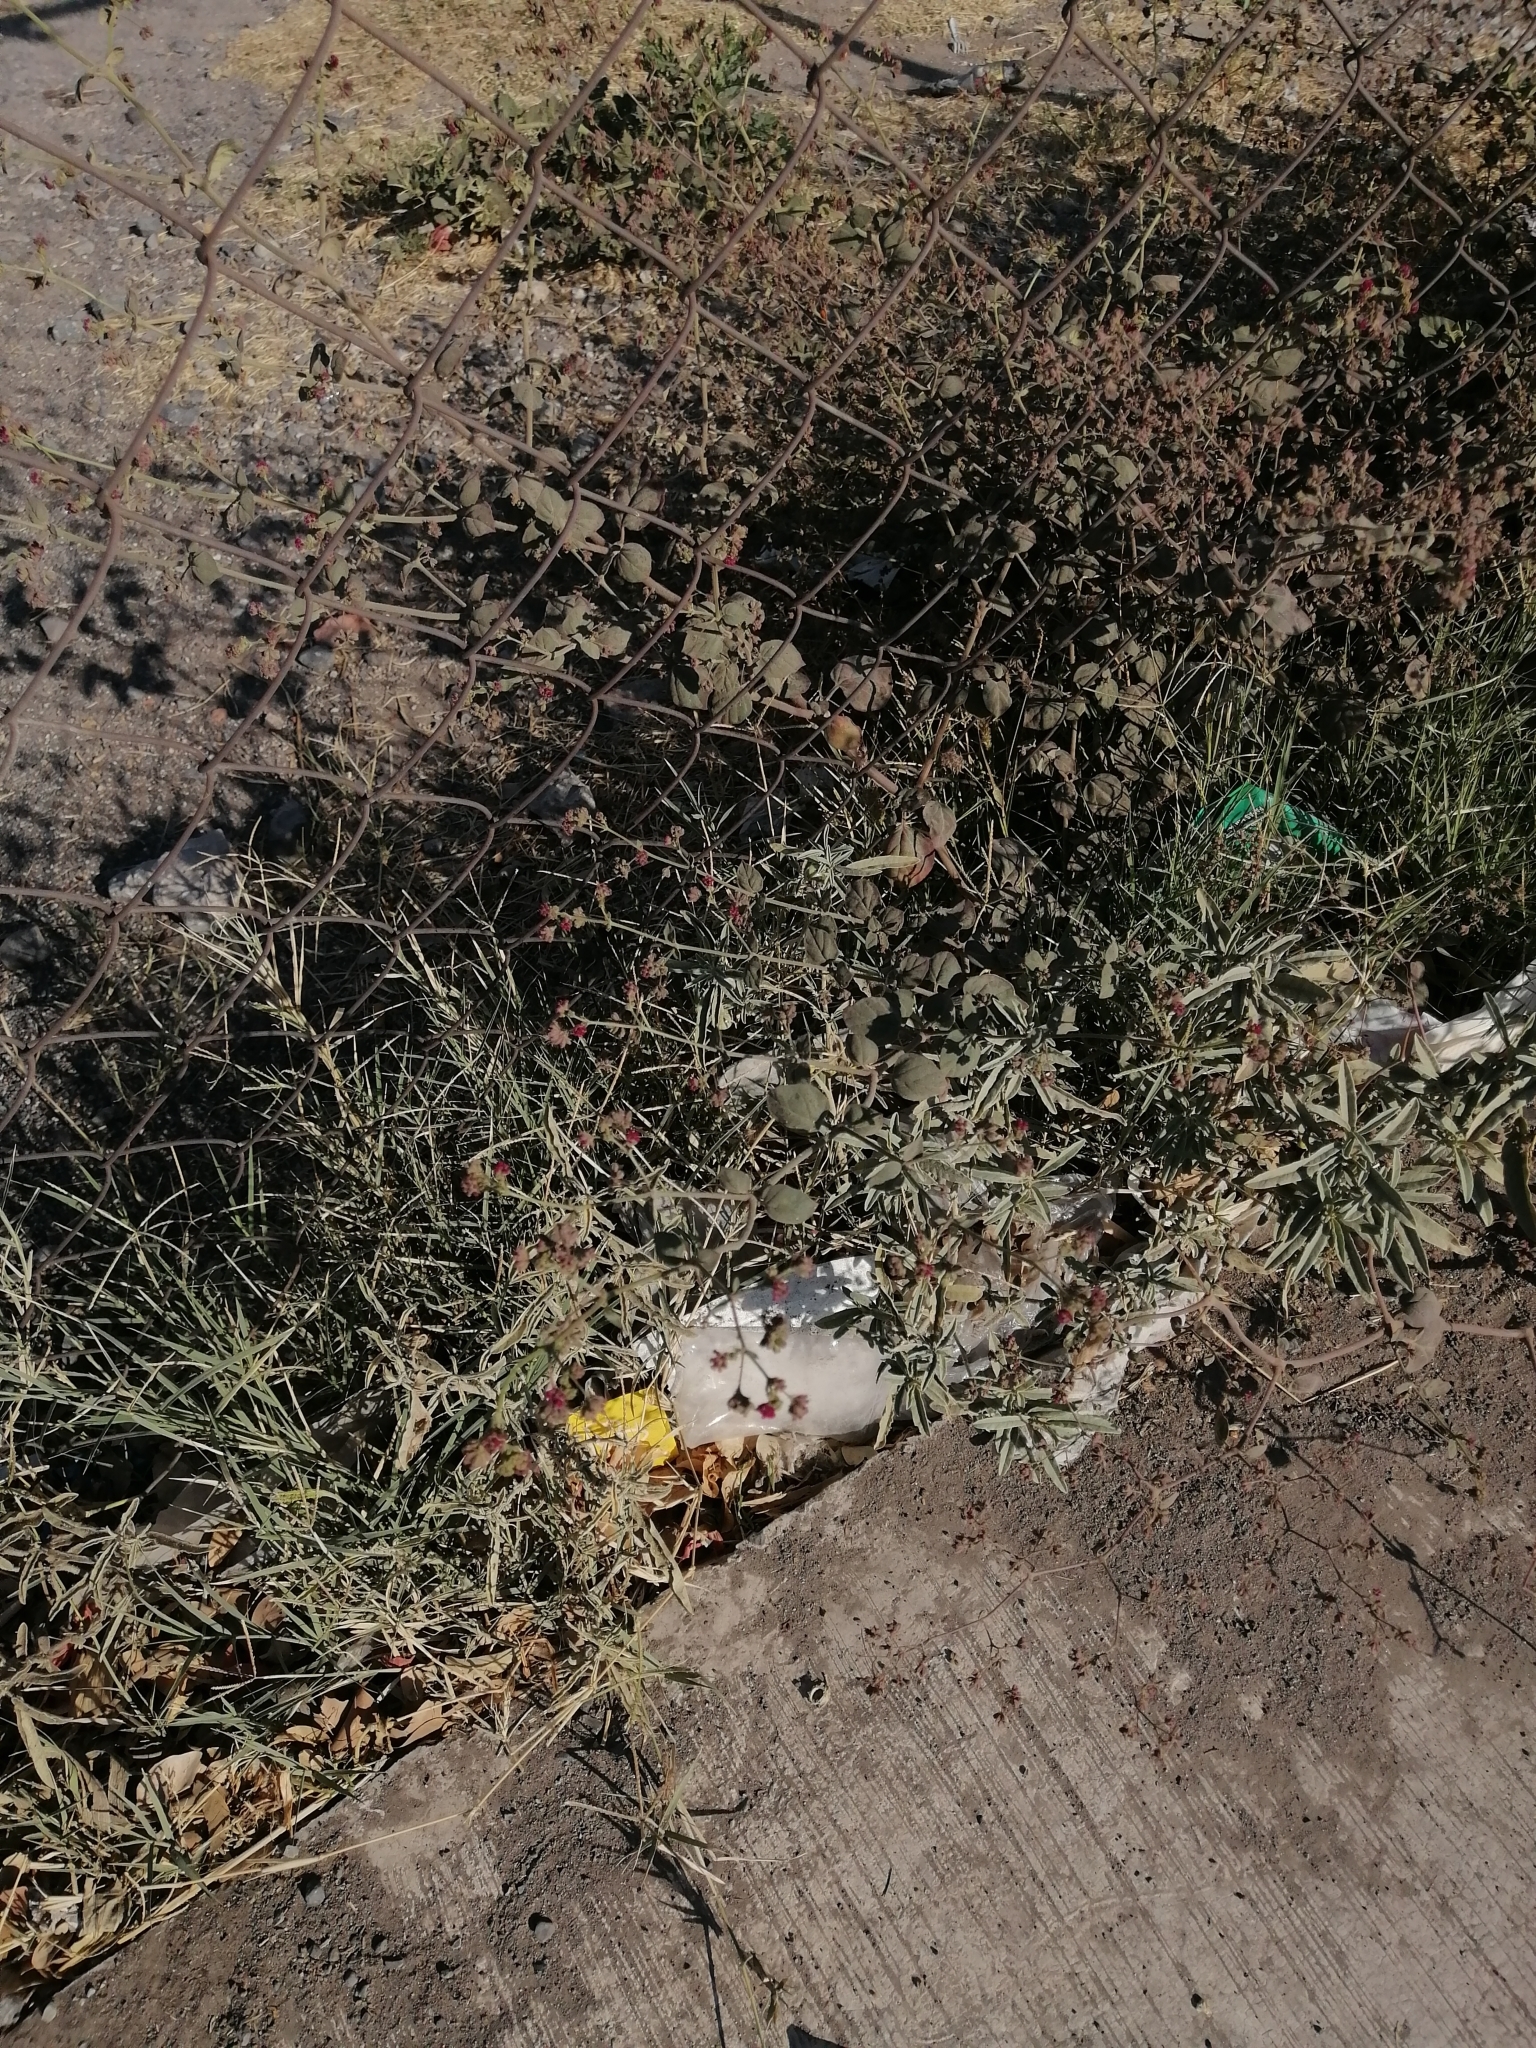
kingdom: Plantae
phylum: Tracheophyta
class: Magnoliopsida
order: Caryophyllales
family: Nyctaginaceae
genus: Boerhavia
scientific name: Boerhavia coccinea
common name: Scarlet spiderling
